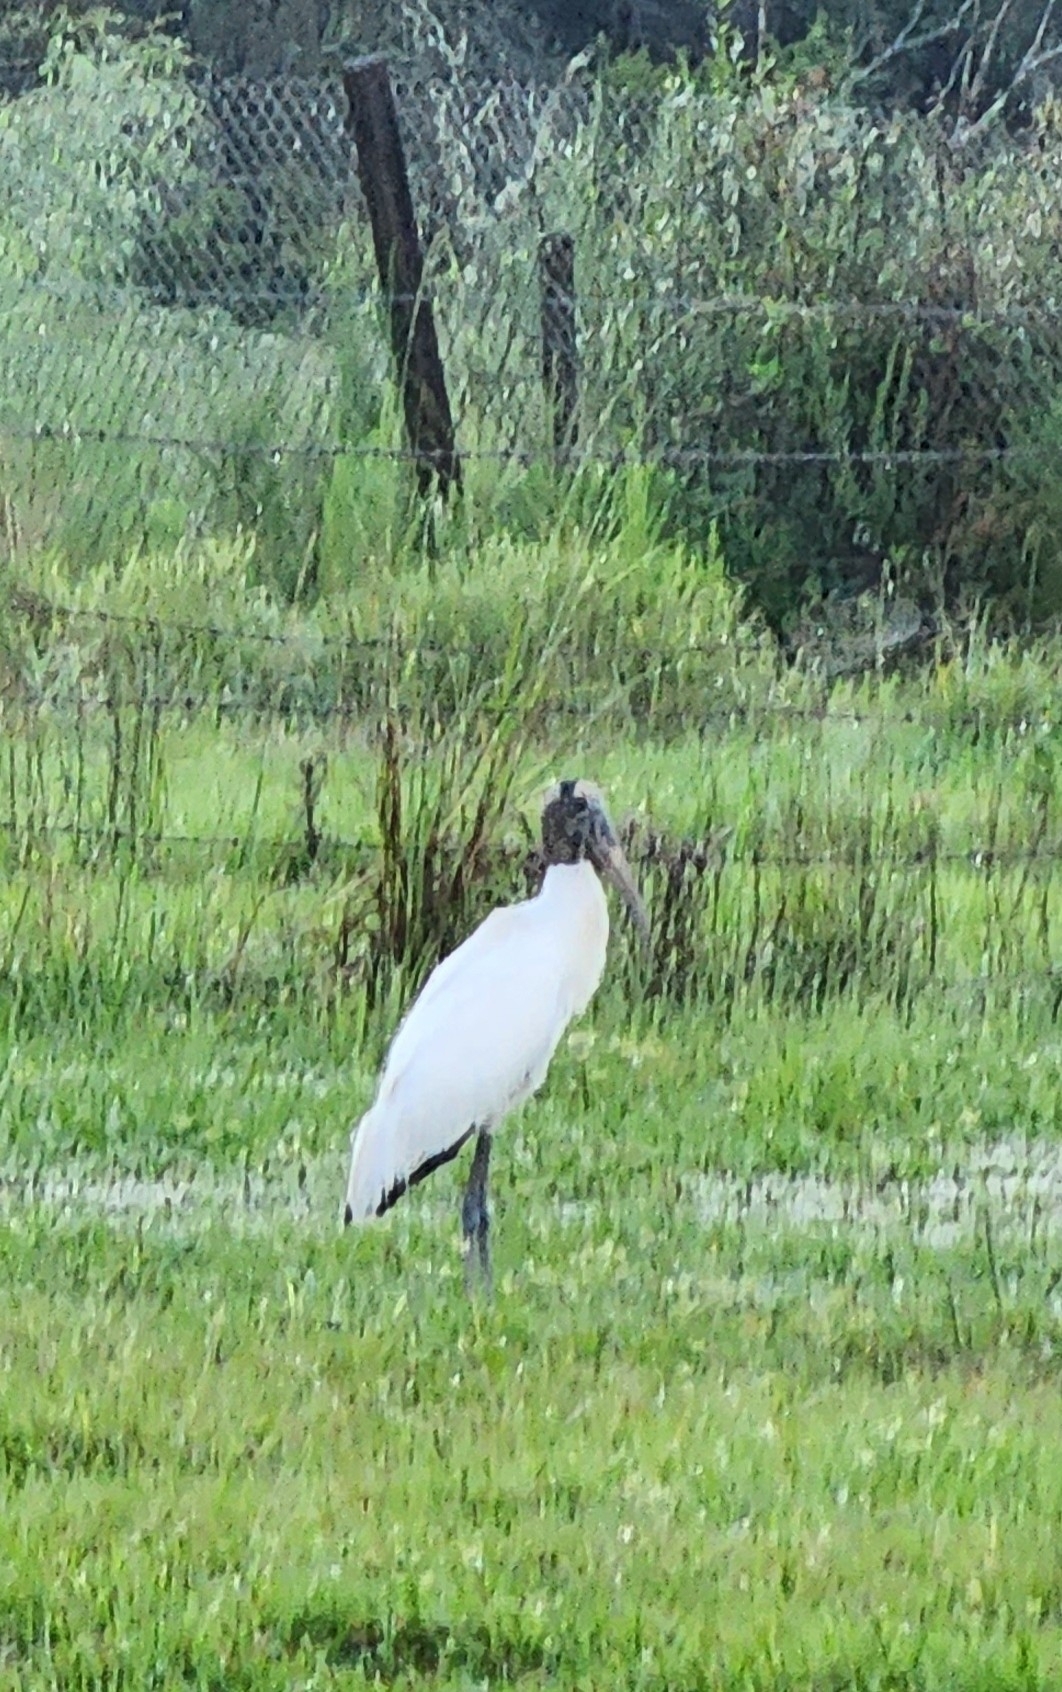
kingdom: Animalia
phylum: Chordata
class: Aves
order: Ciconiiformes
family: Ciconiidae
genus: Mycteria
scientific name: Mycteria americana
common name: Wood stork
